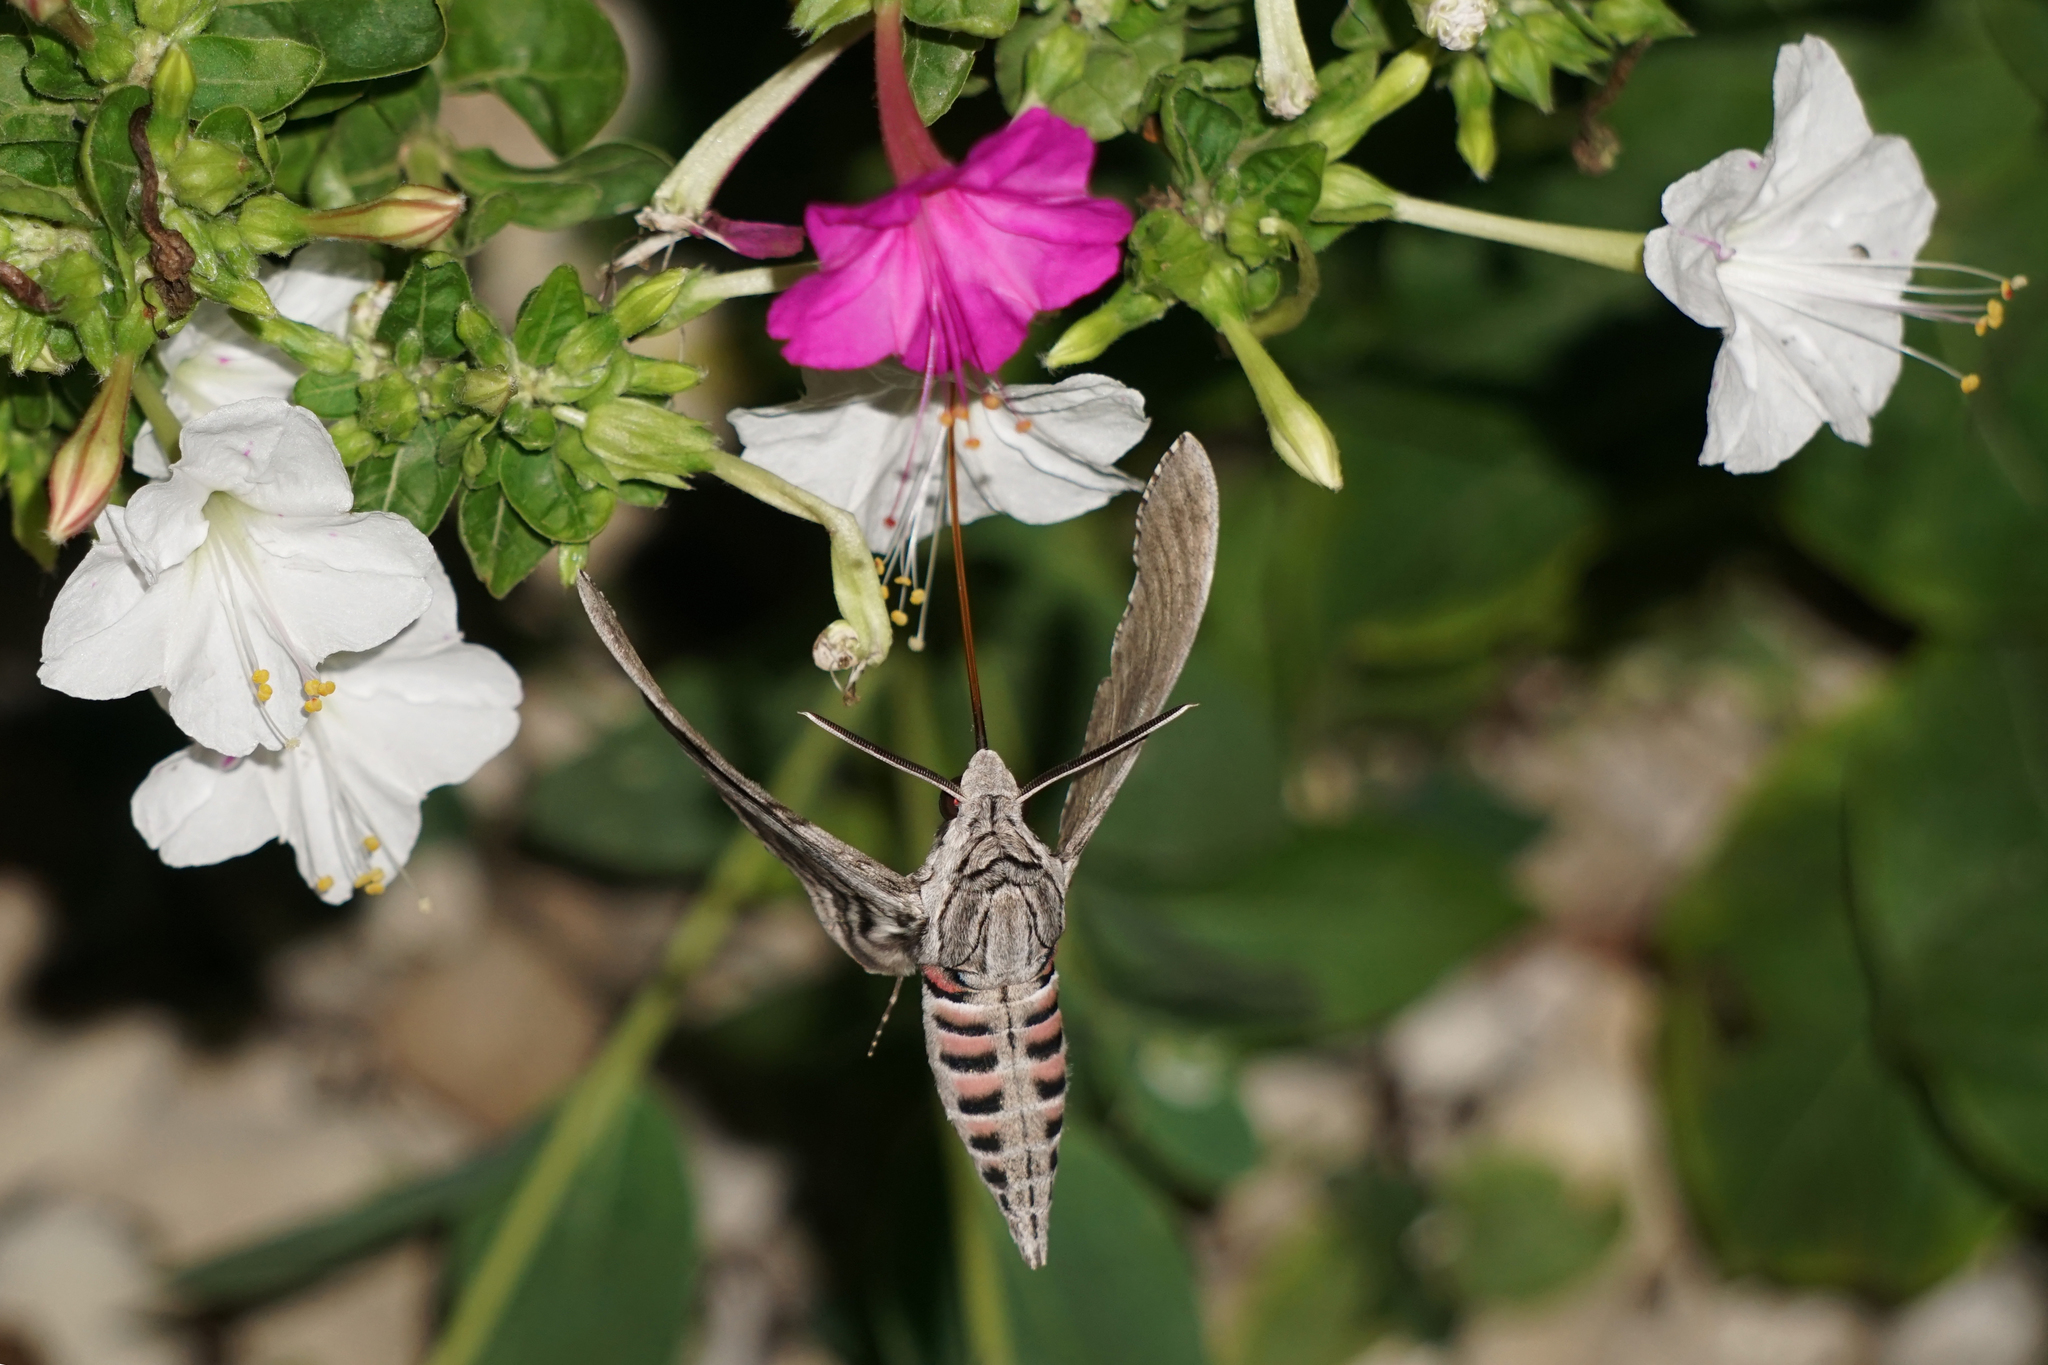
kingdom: Animalia
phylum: Arthropoda
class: Insecta
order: Lepidoptera
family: Sphingidae
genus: Agrius
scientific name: Agrius convolvuli
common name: Convolvulus hawkmoth
